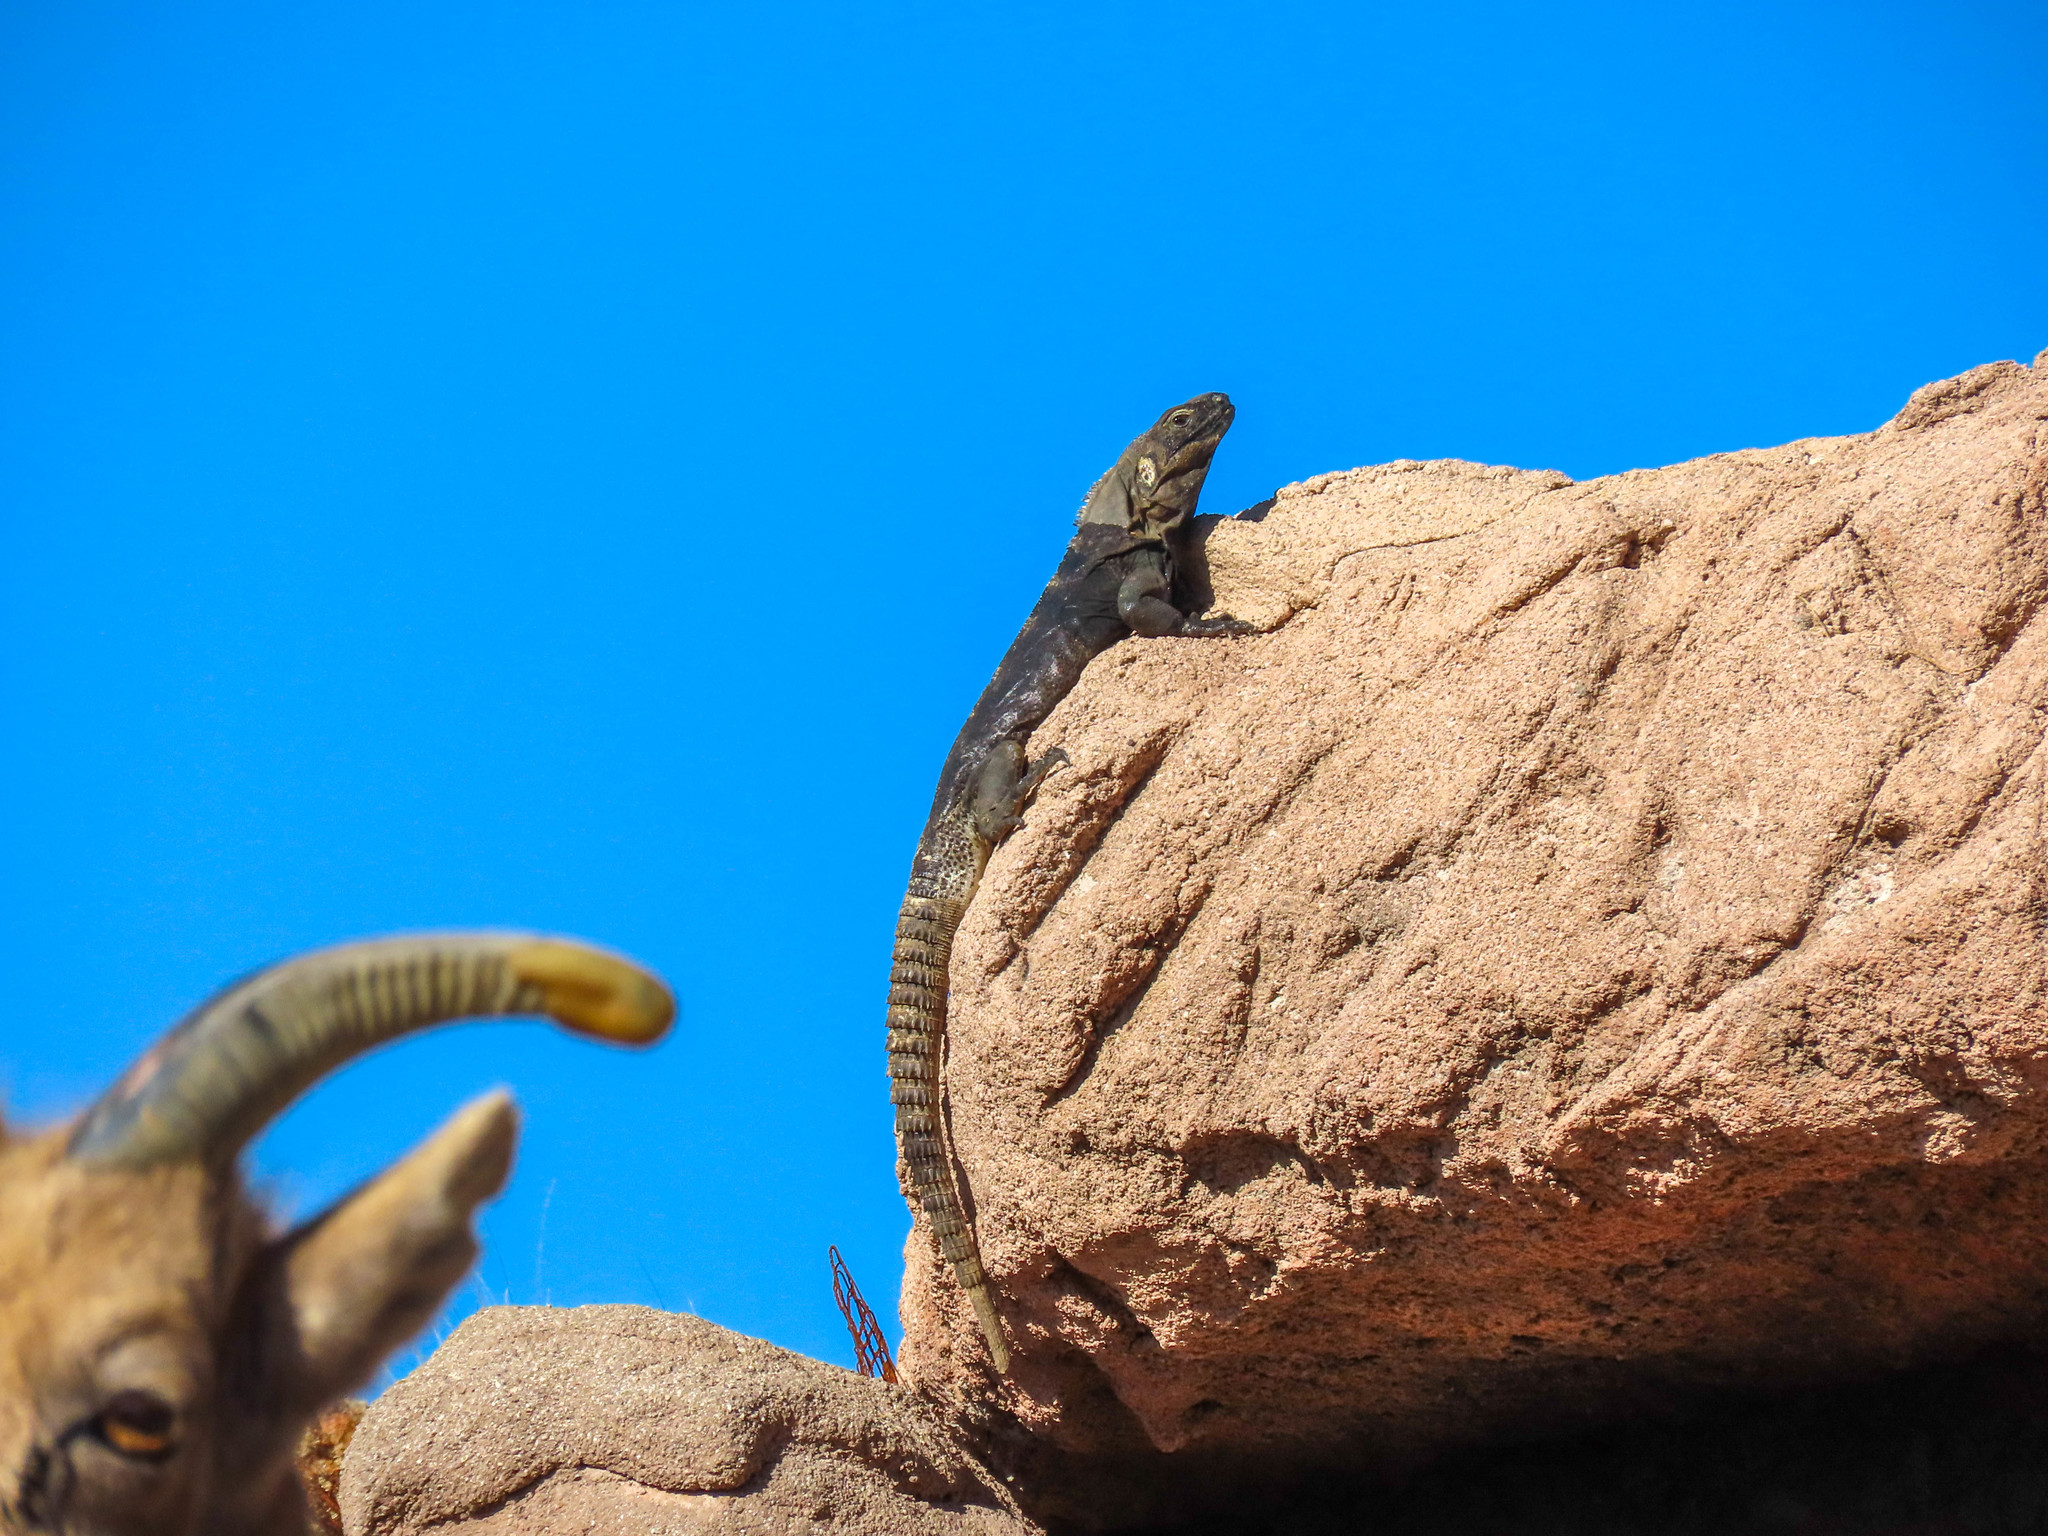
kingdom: Animalia
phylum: Chordata
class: Squamata
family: Iguanidae
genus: Ctenosaura
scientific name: Ctenosaura
